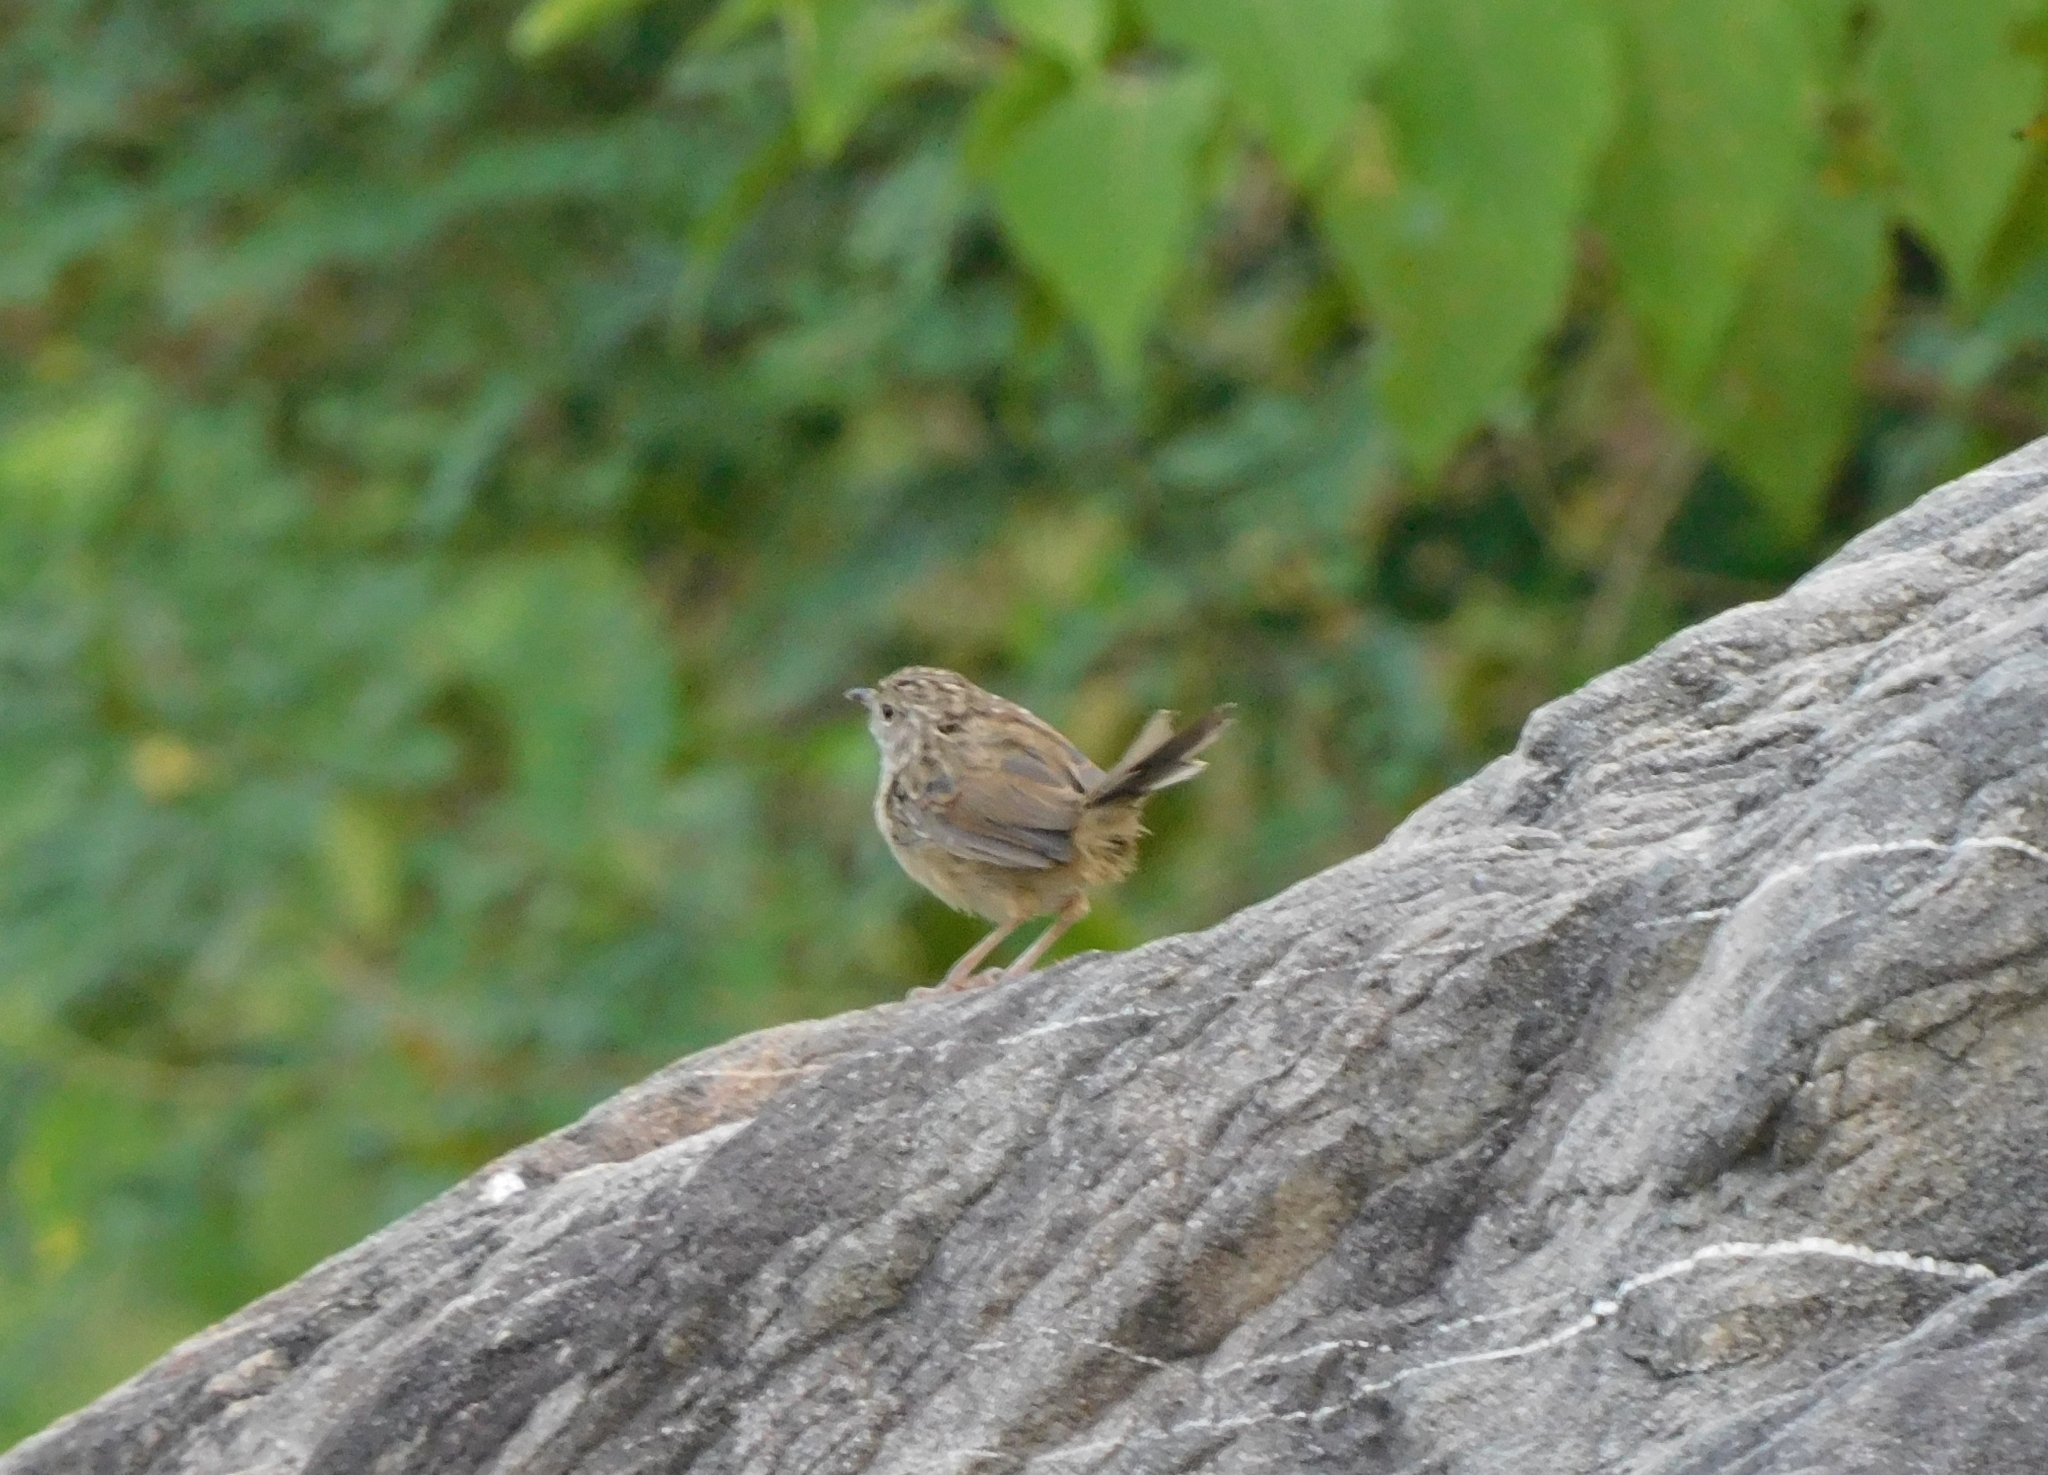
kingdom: Animalia
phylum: Chordata
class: Aves
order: Passeriformes
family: Cisticolidae
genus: Prinia
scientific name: Prinia crinigera
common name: Striated prinia
